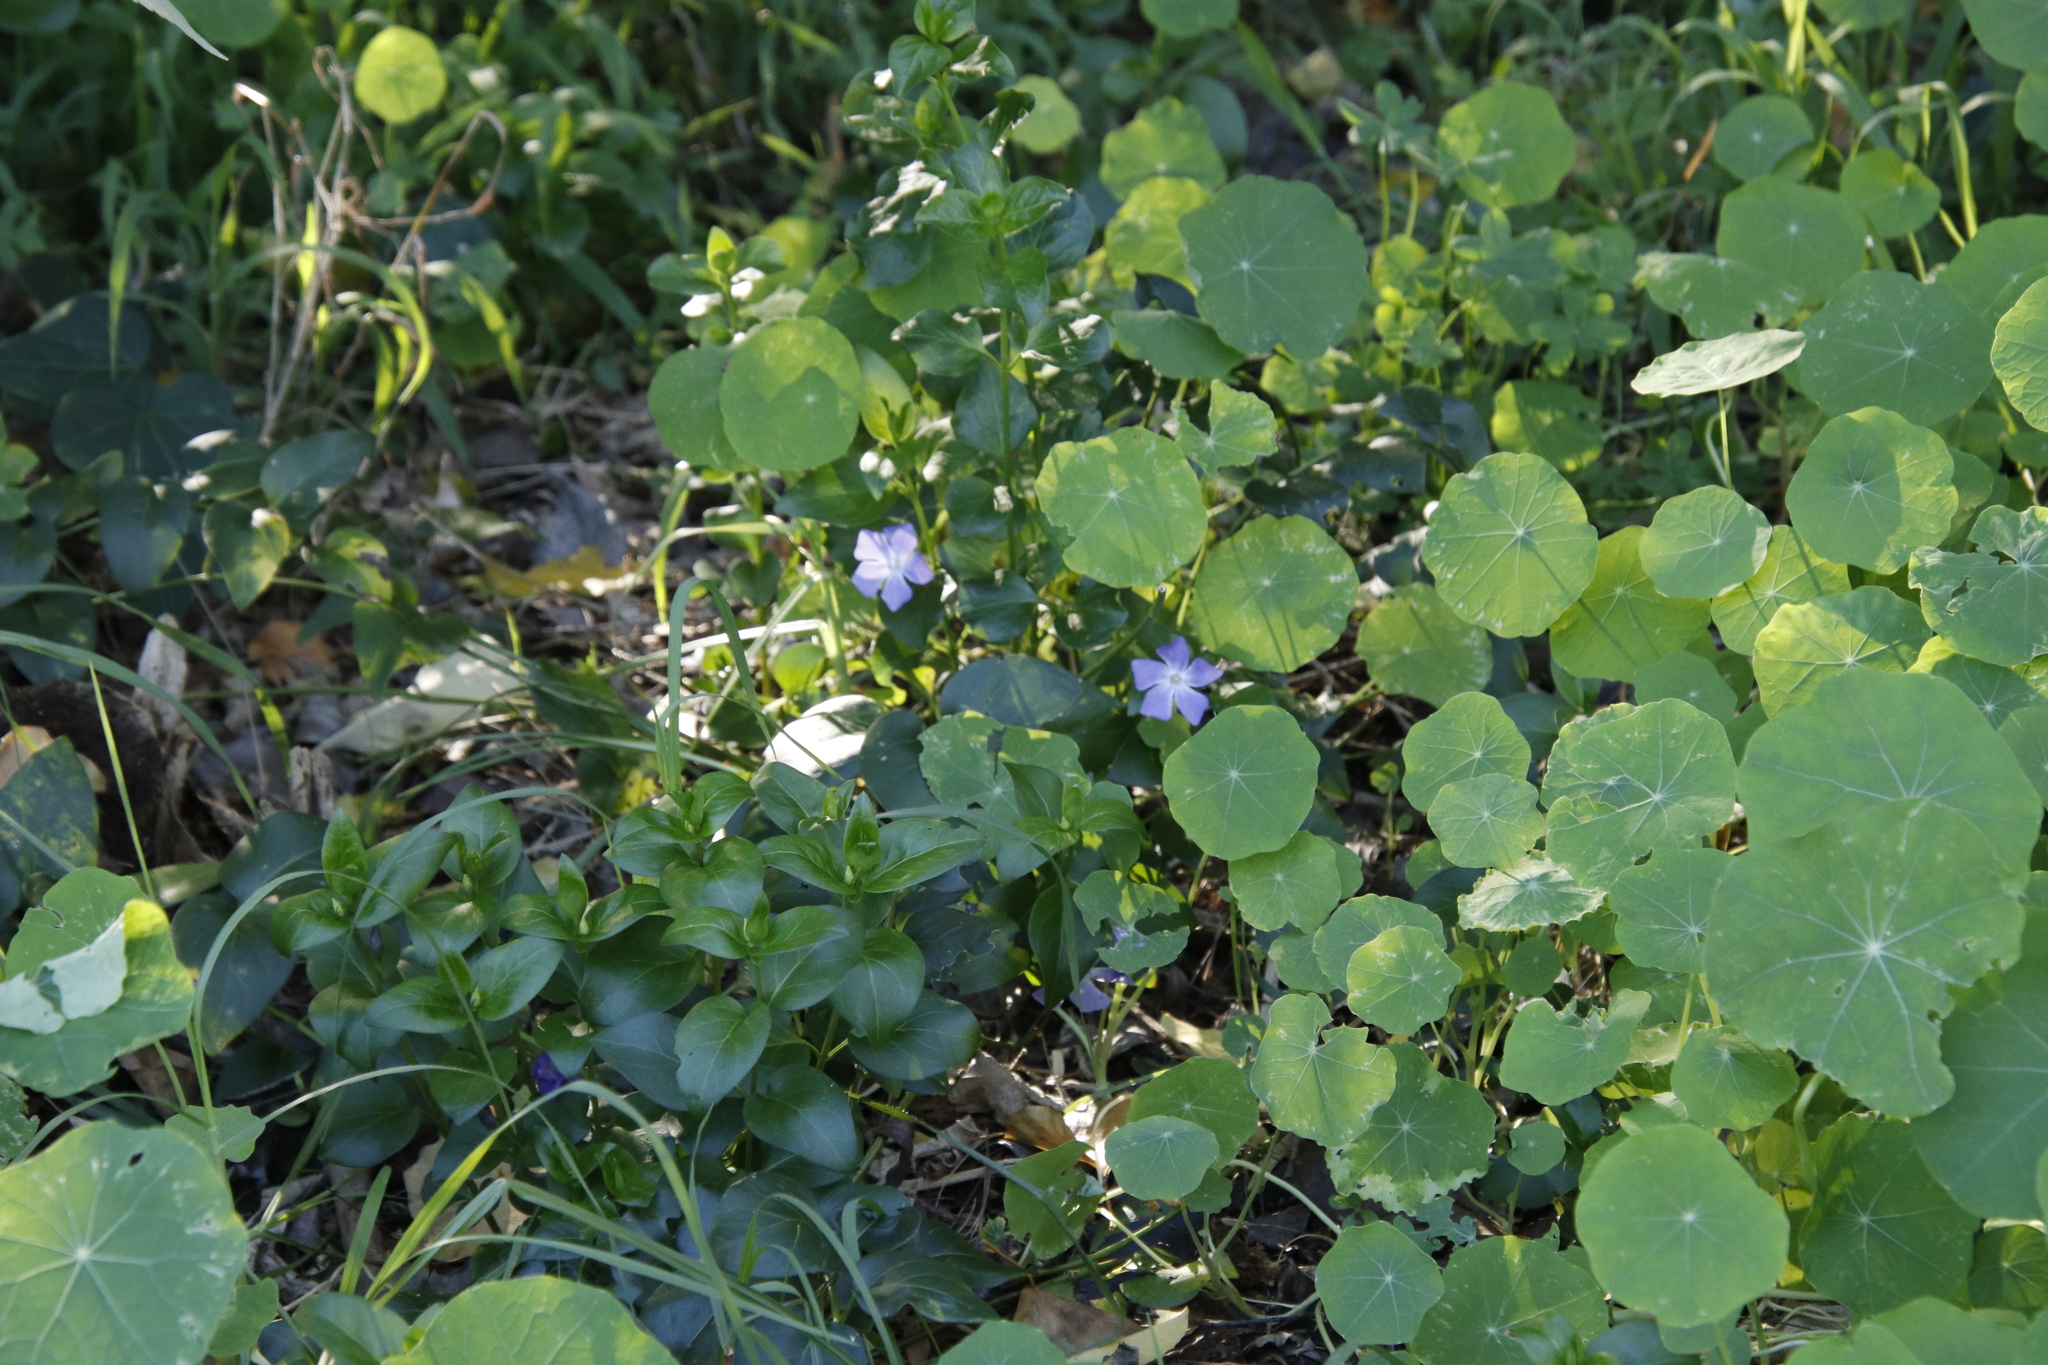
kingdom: Plantae
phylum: Tracheophyta
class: Magnoliopsida
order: Gentianales
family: Apocynaceae
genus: Vinca
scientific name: Vinca major
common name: Greater periwinkle
